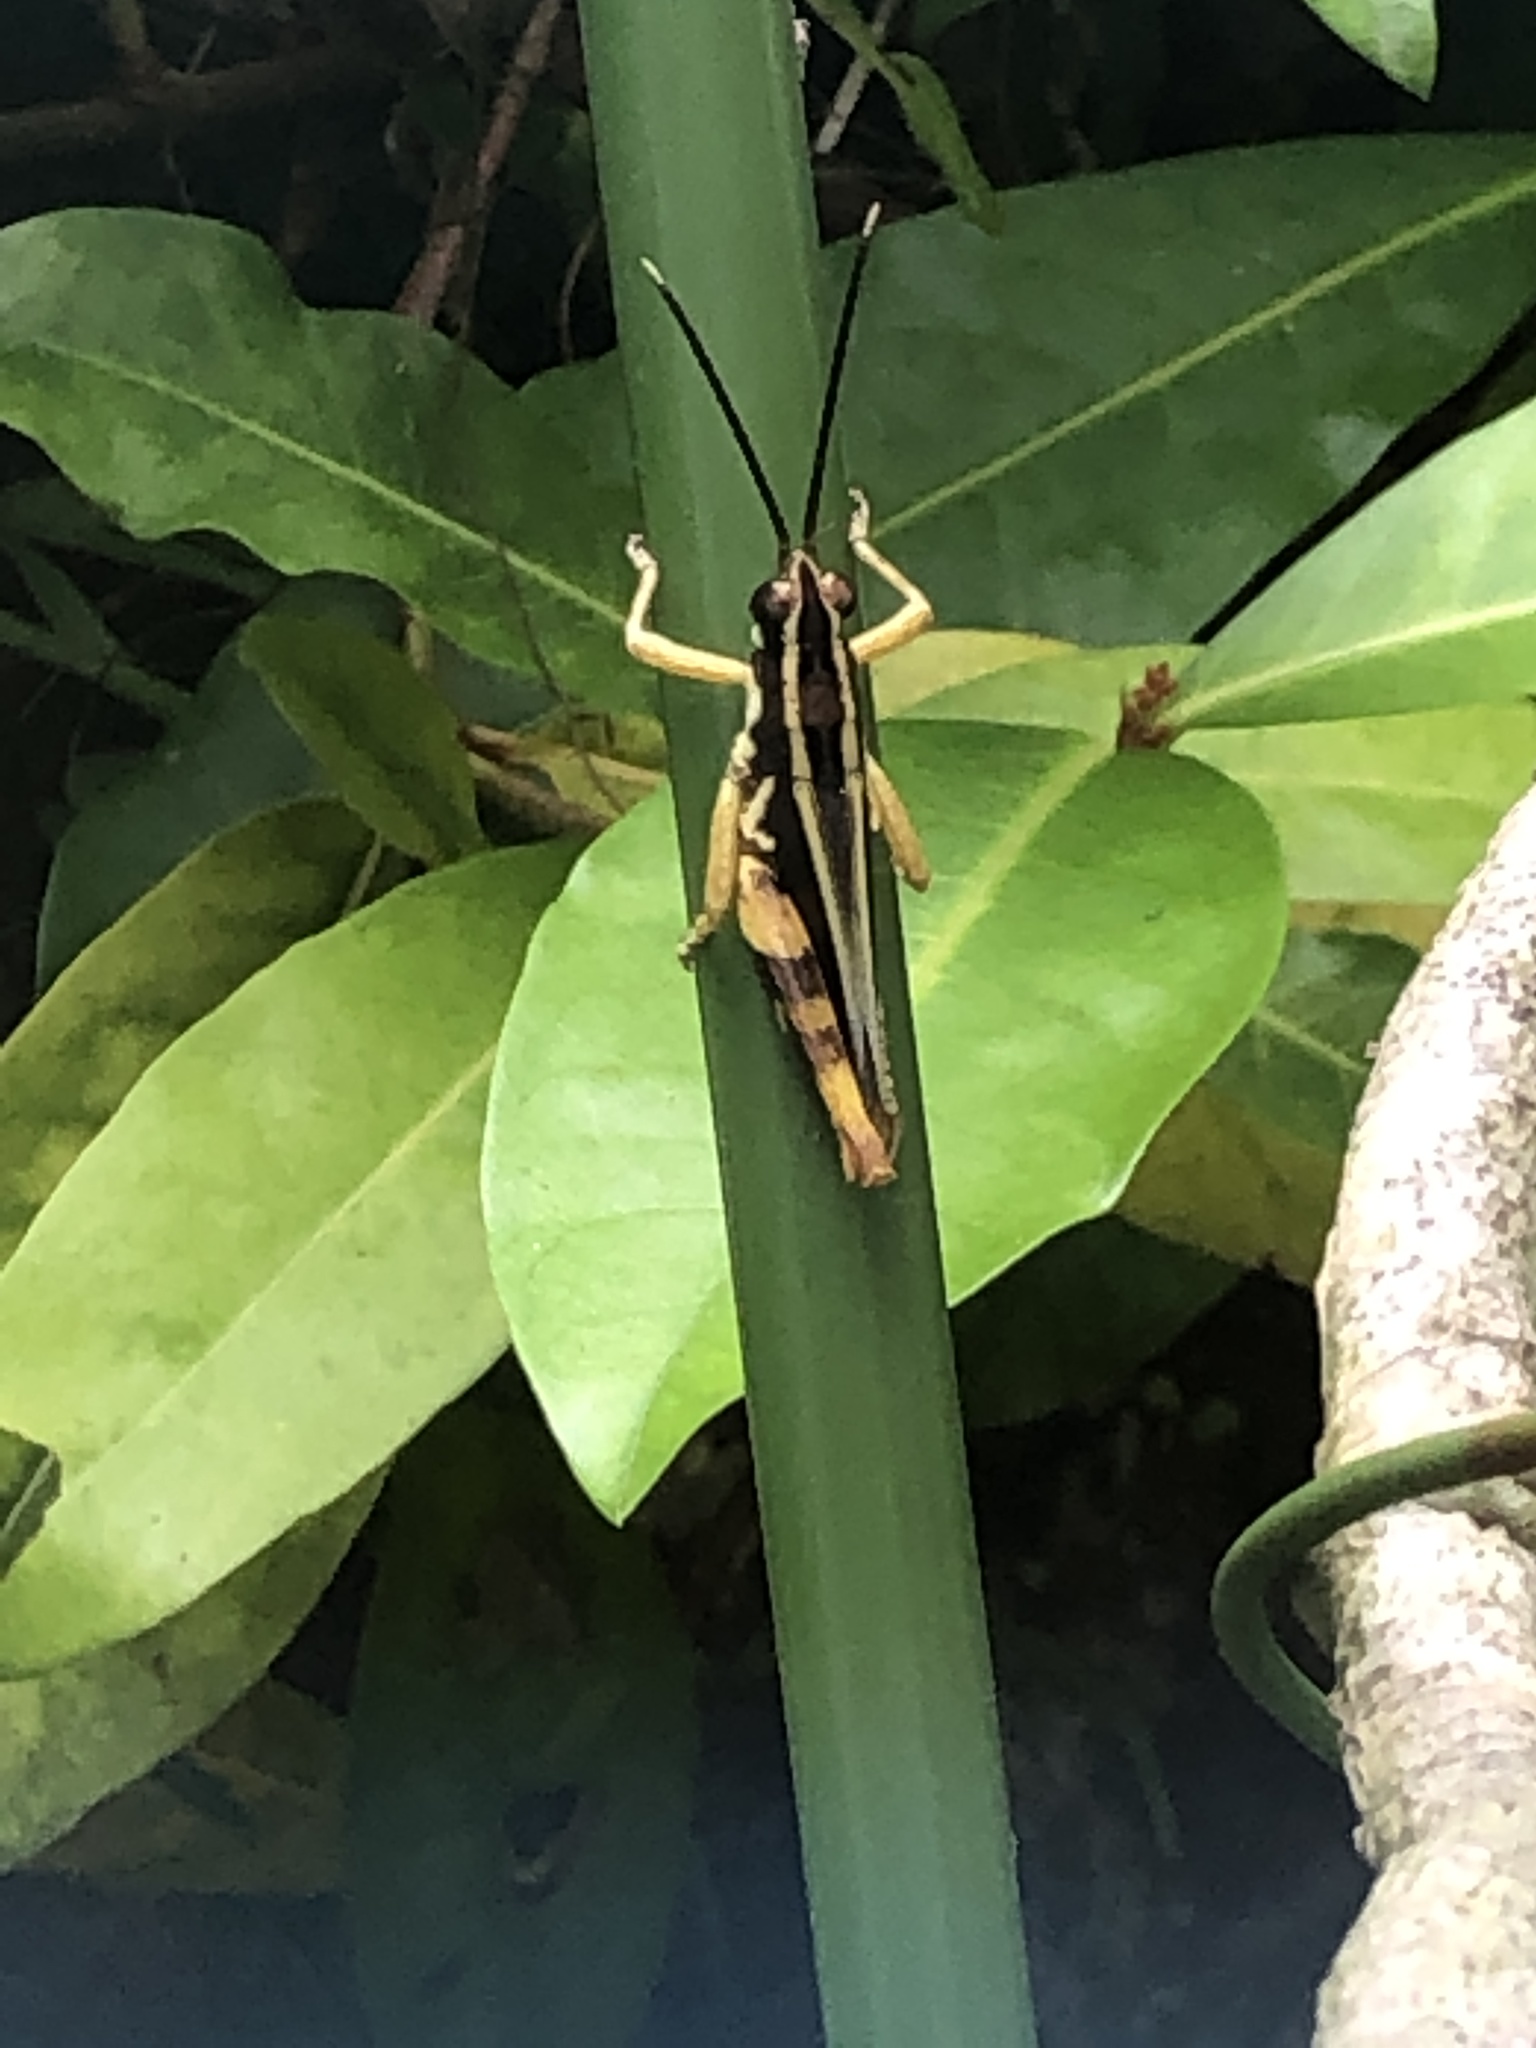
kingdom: Animalia
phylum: Arthropoda
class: Insecta
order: Orthoptera
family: Acrididae
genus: Traulia
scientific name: Traulia ornata
